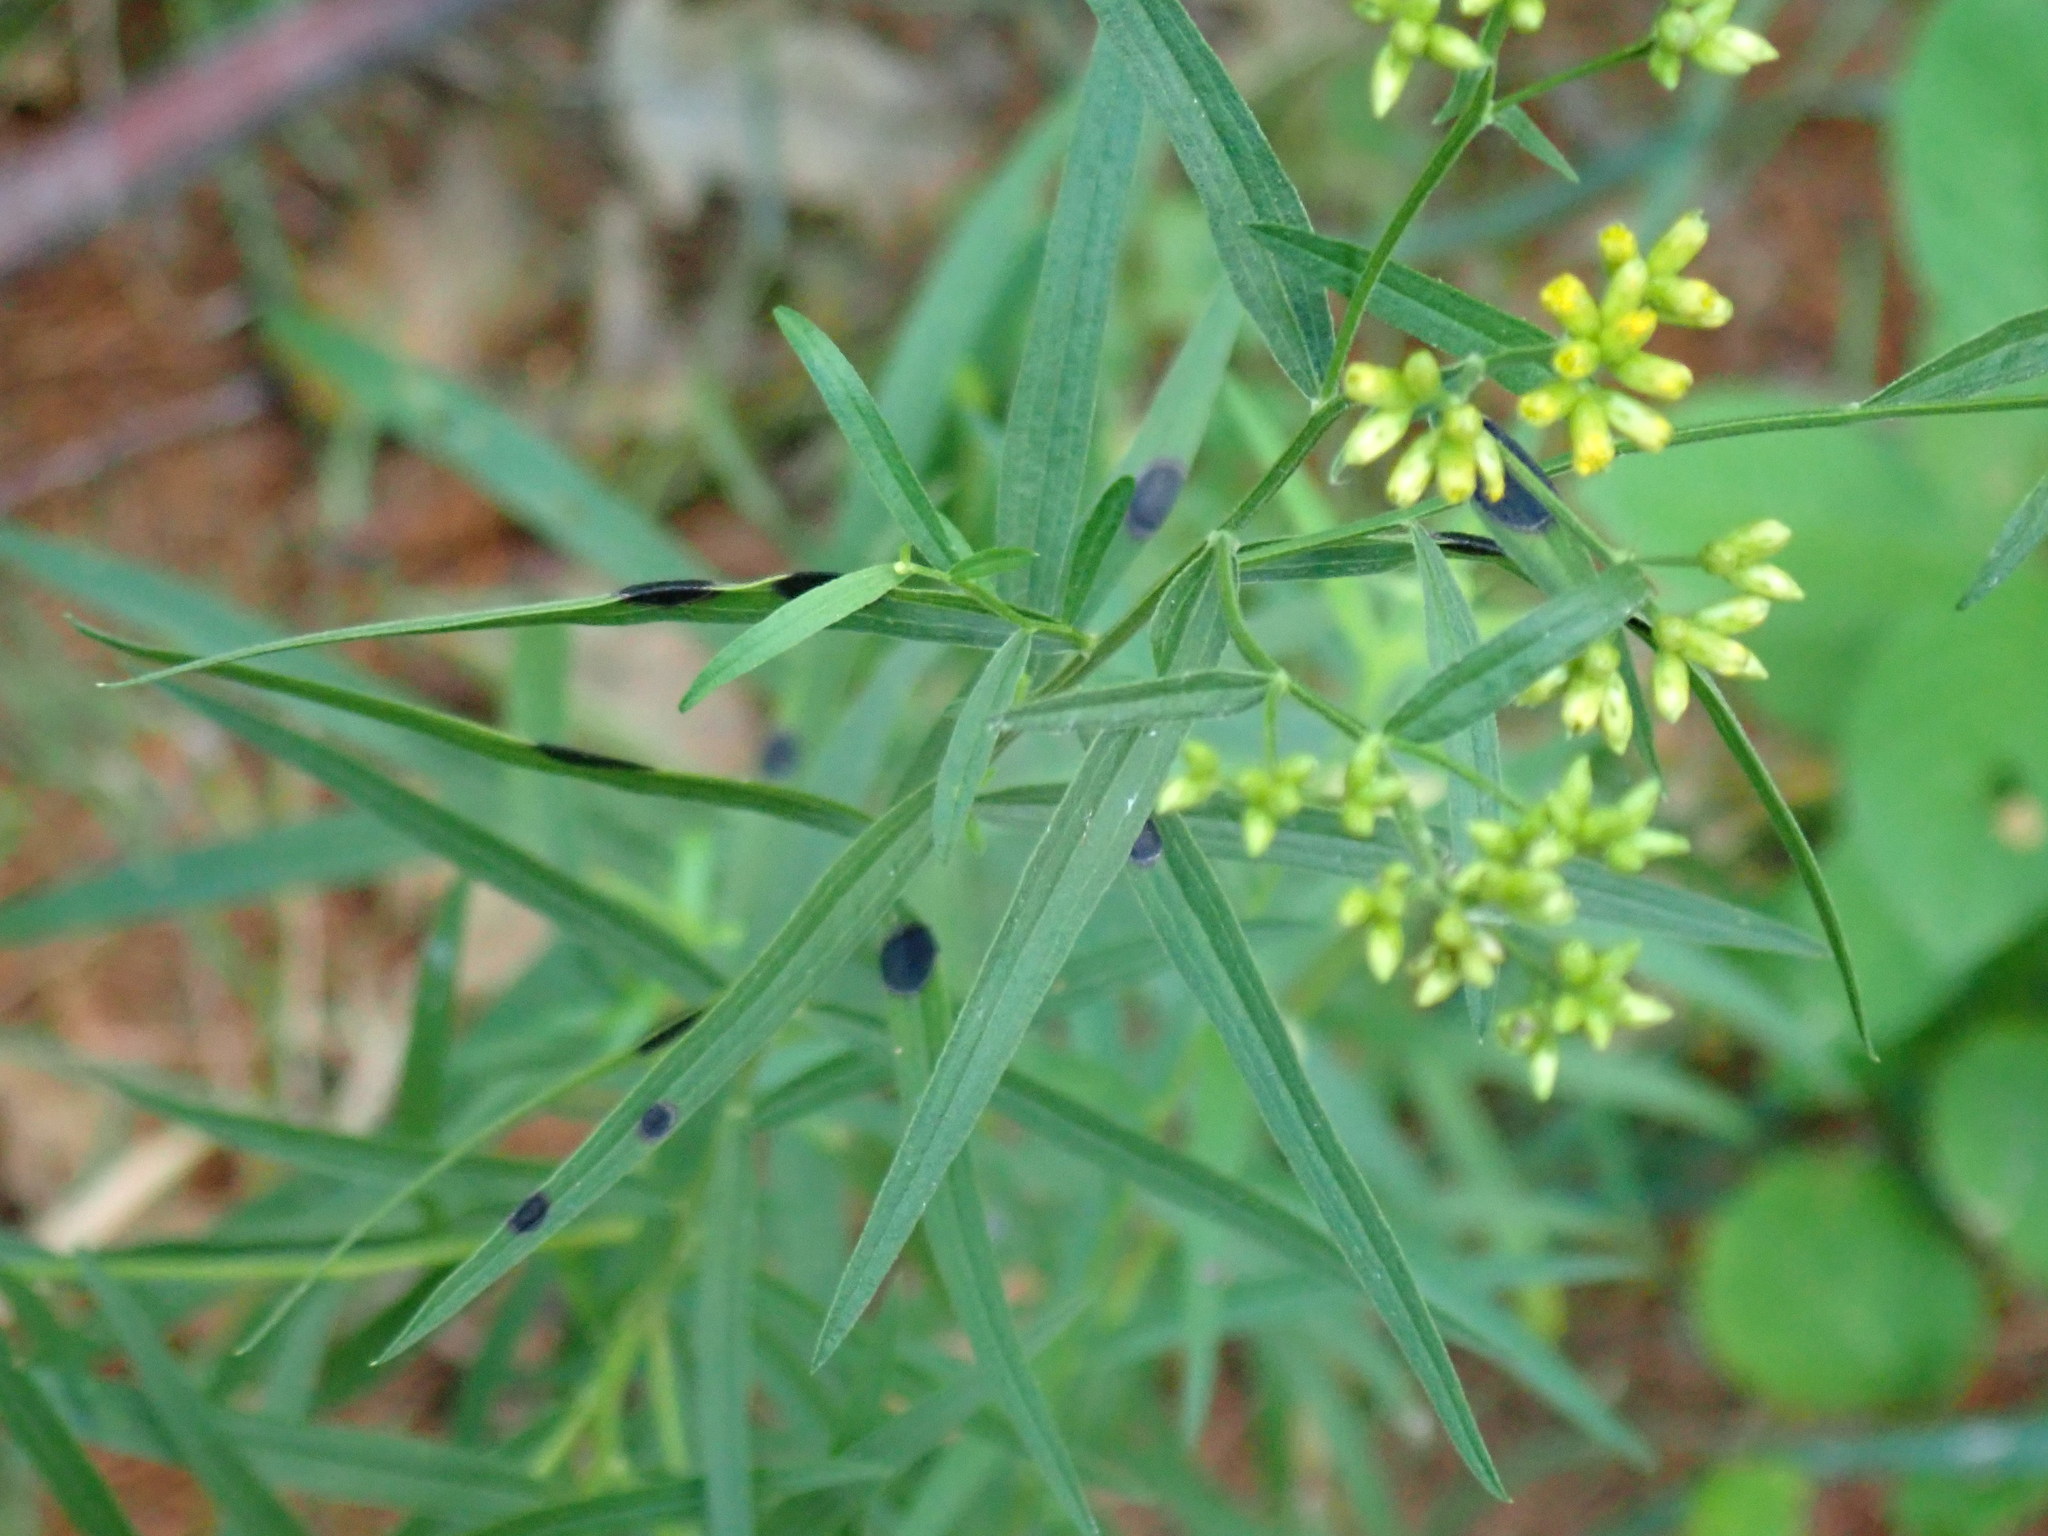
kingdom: Animalia
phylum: Arthropoda
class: Insecta
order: Diptera
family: Cecidomyiidae
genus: Asteromyia
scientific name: Asteromyia euthamiae
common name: Euthamia leaf gall midge
